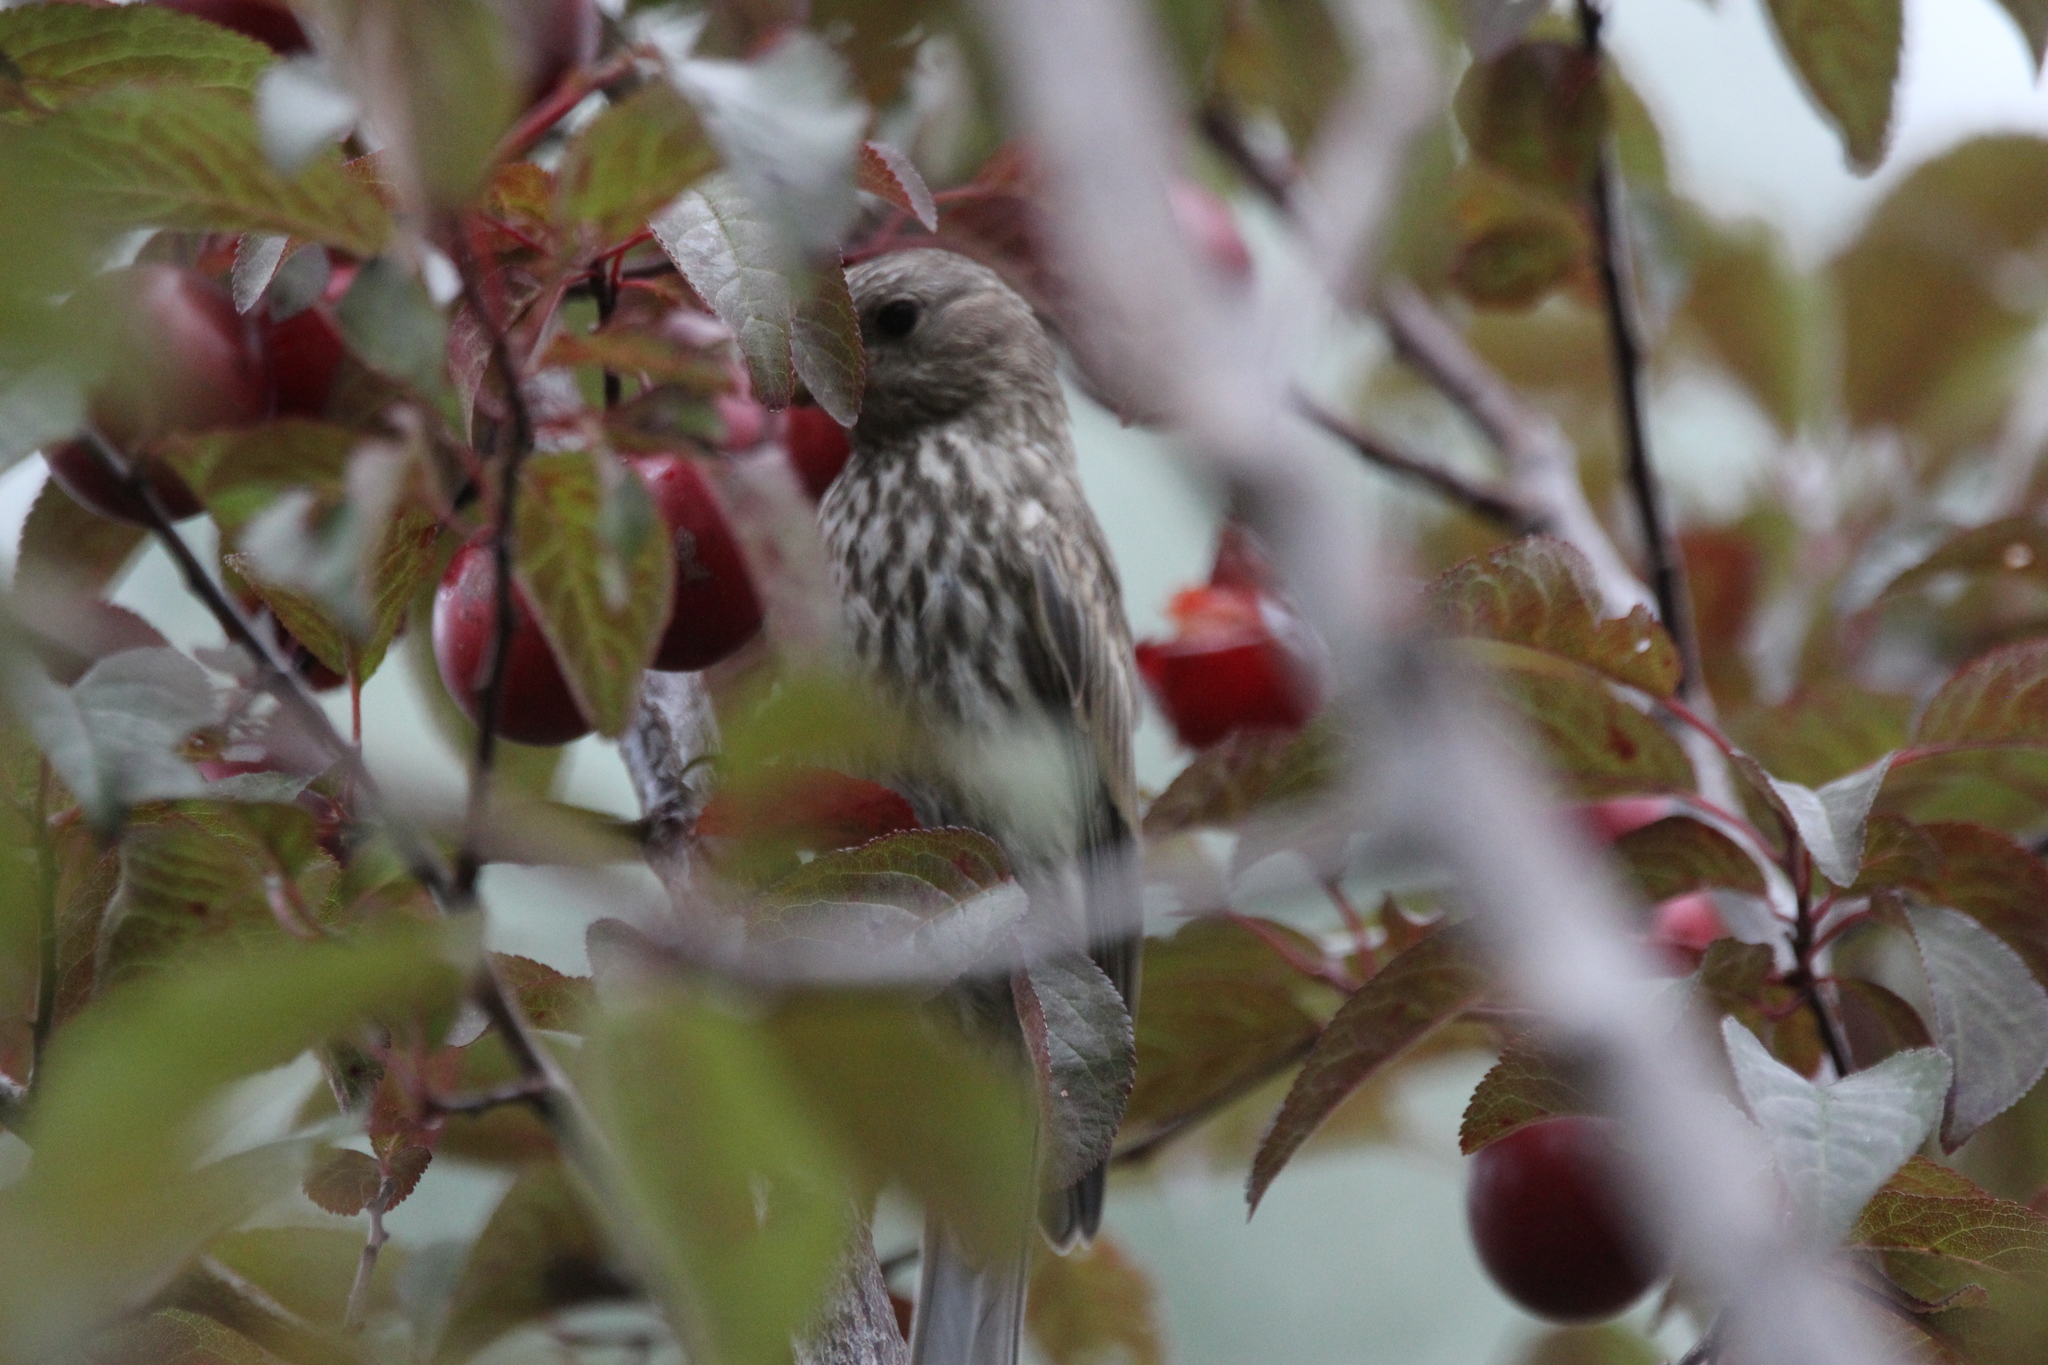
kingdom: Animalia
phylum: Chordata
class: Aves
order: Passeriformes
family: Fringillidae
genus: Haemorhous
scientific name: Haemorhous mexicanus
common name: House finch
